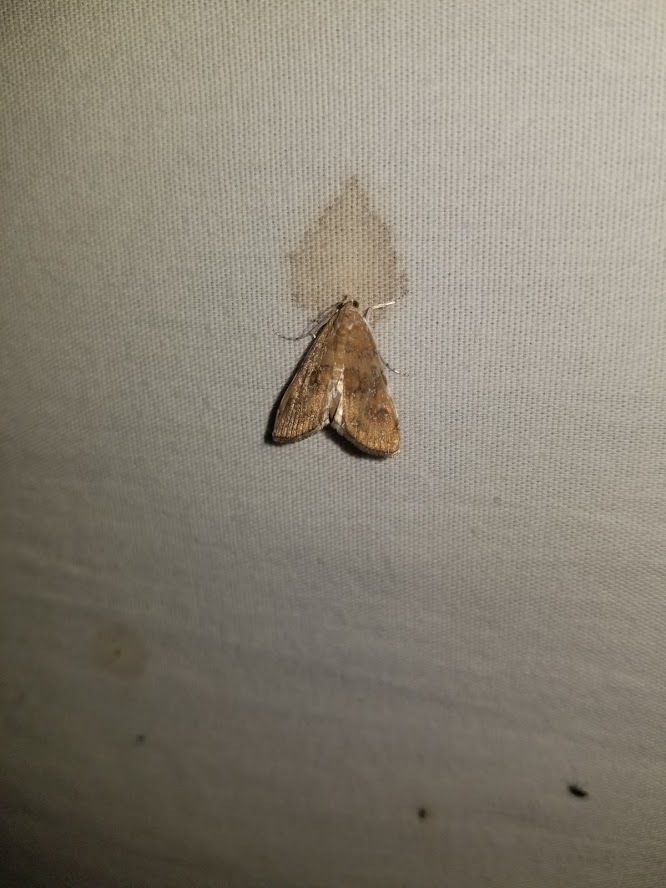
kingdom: Animalia
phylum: Arthropoda
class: Insecta
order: Lepidoptera
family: Crambidae
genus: Elophila
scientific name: Elophila gyralis
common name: Waterlily borer moth
